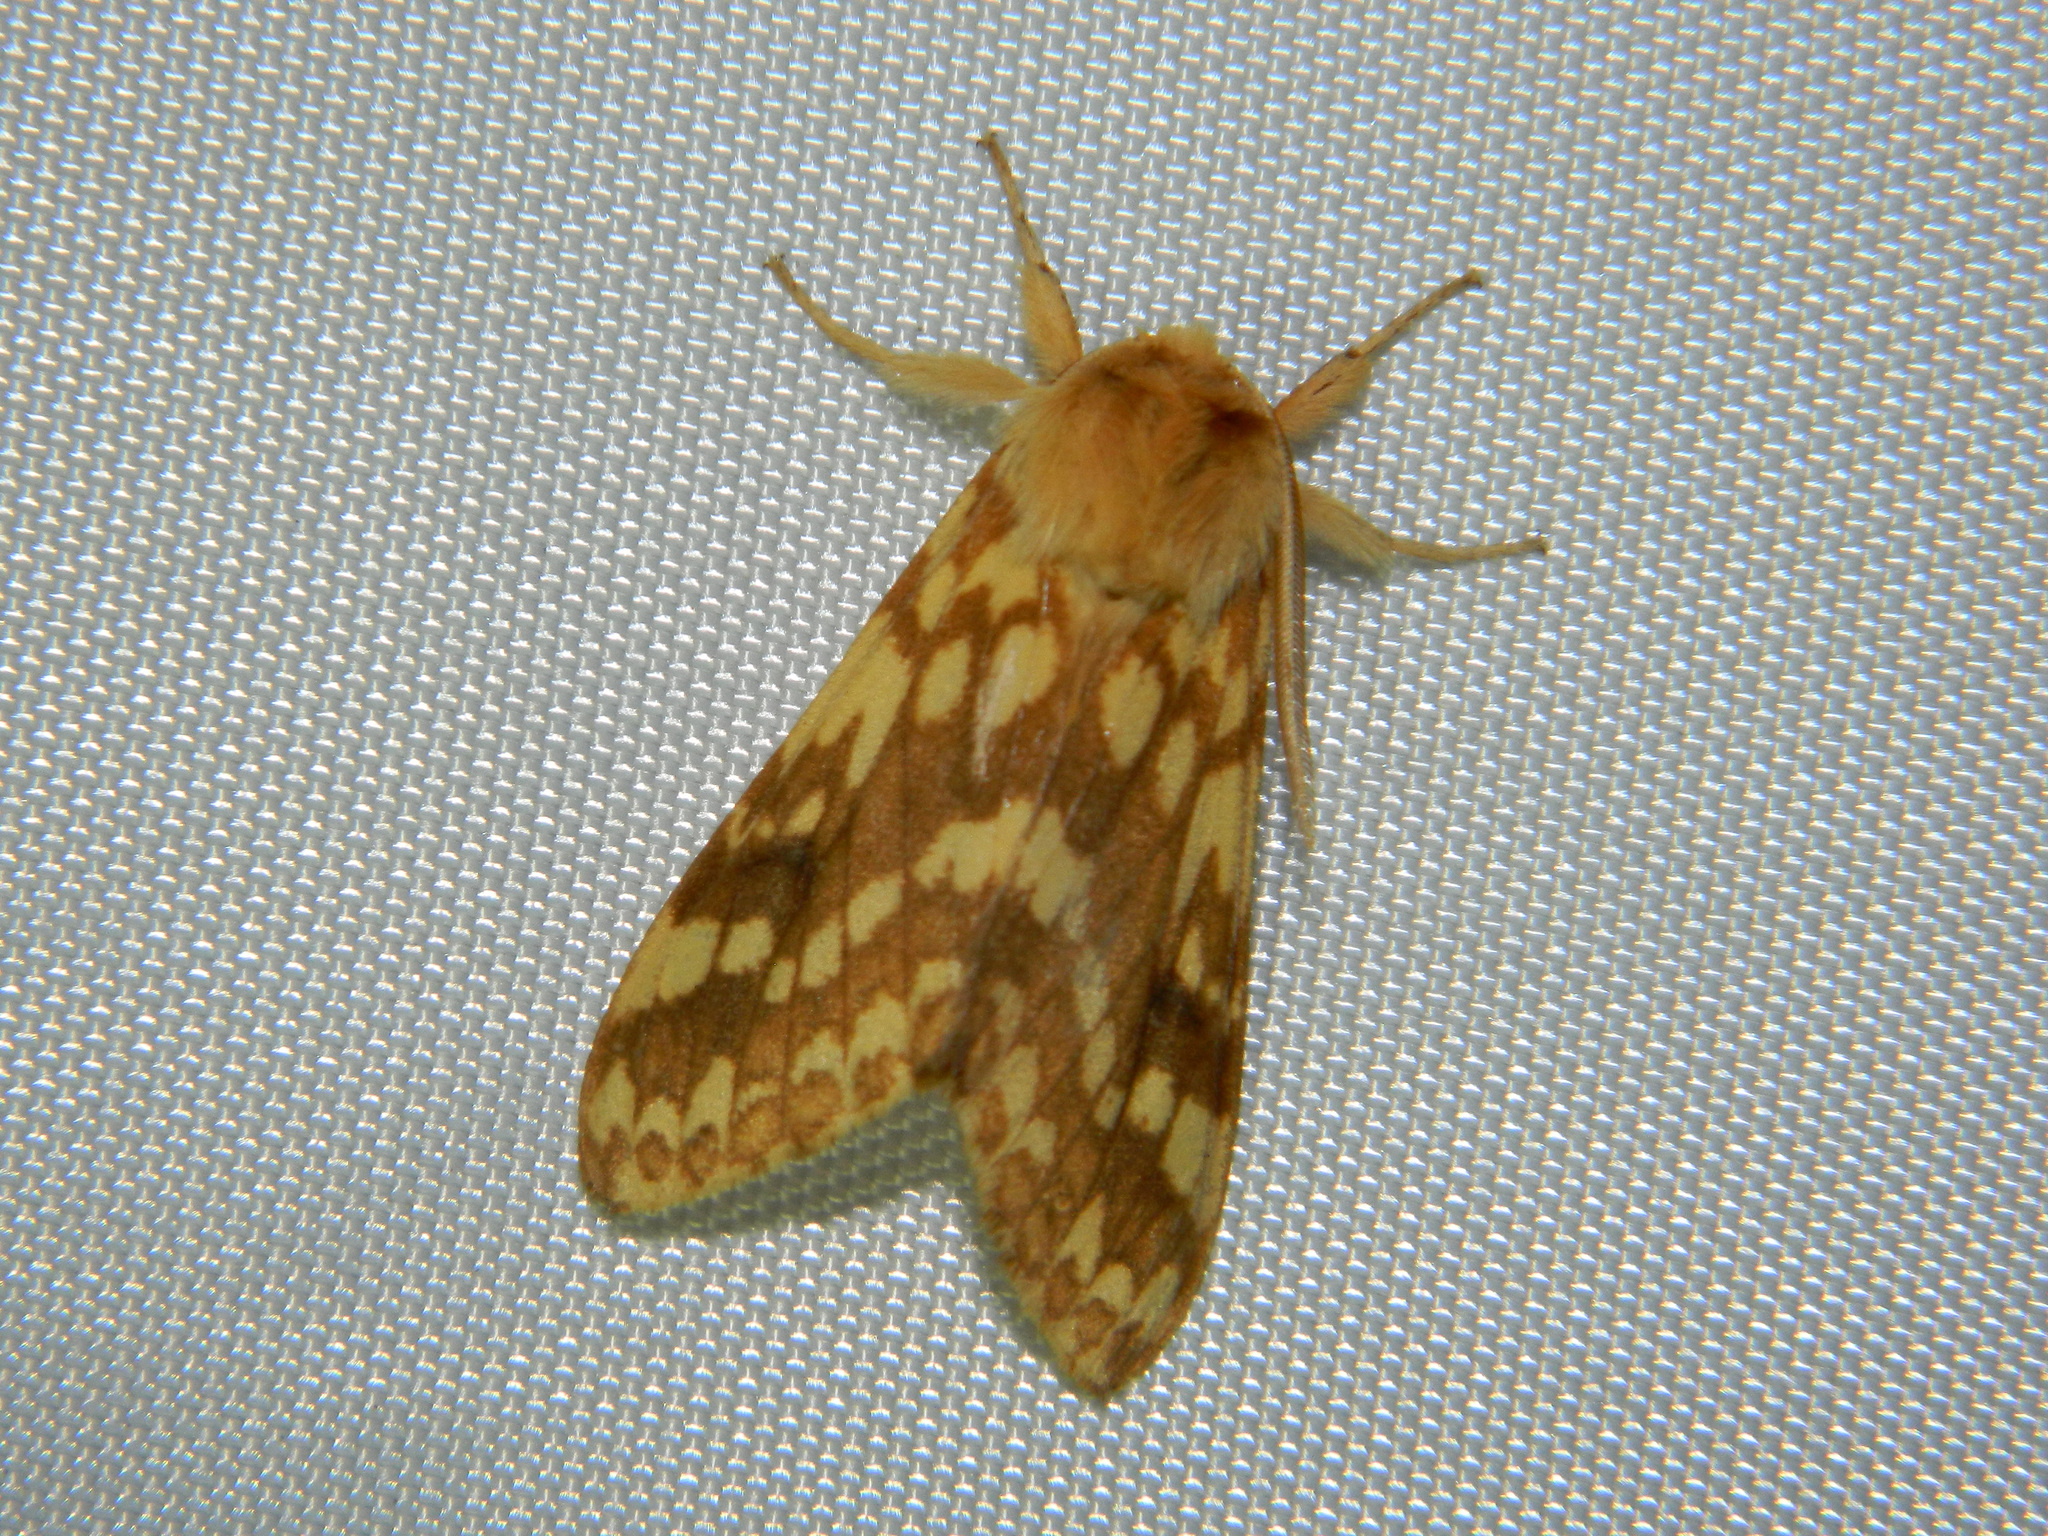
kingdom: Animalia
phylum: Arthropoda
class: Insecta
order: Lepidoptera
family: Erebidae
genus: Lophocampa
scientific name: Lophocampa maculata
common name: Spotted tussock moth
